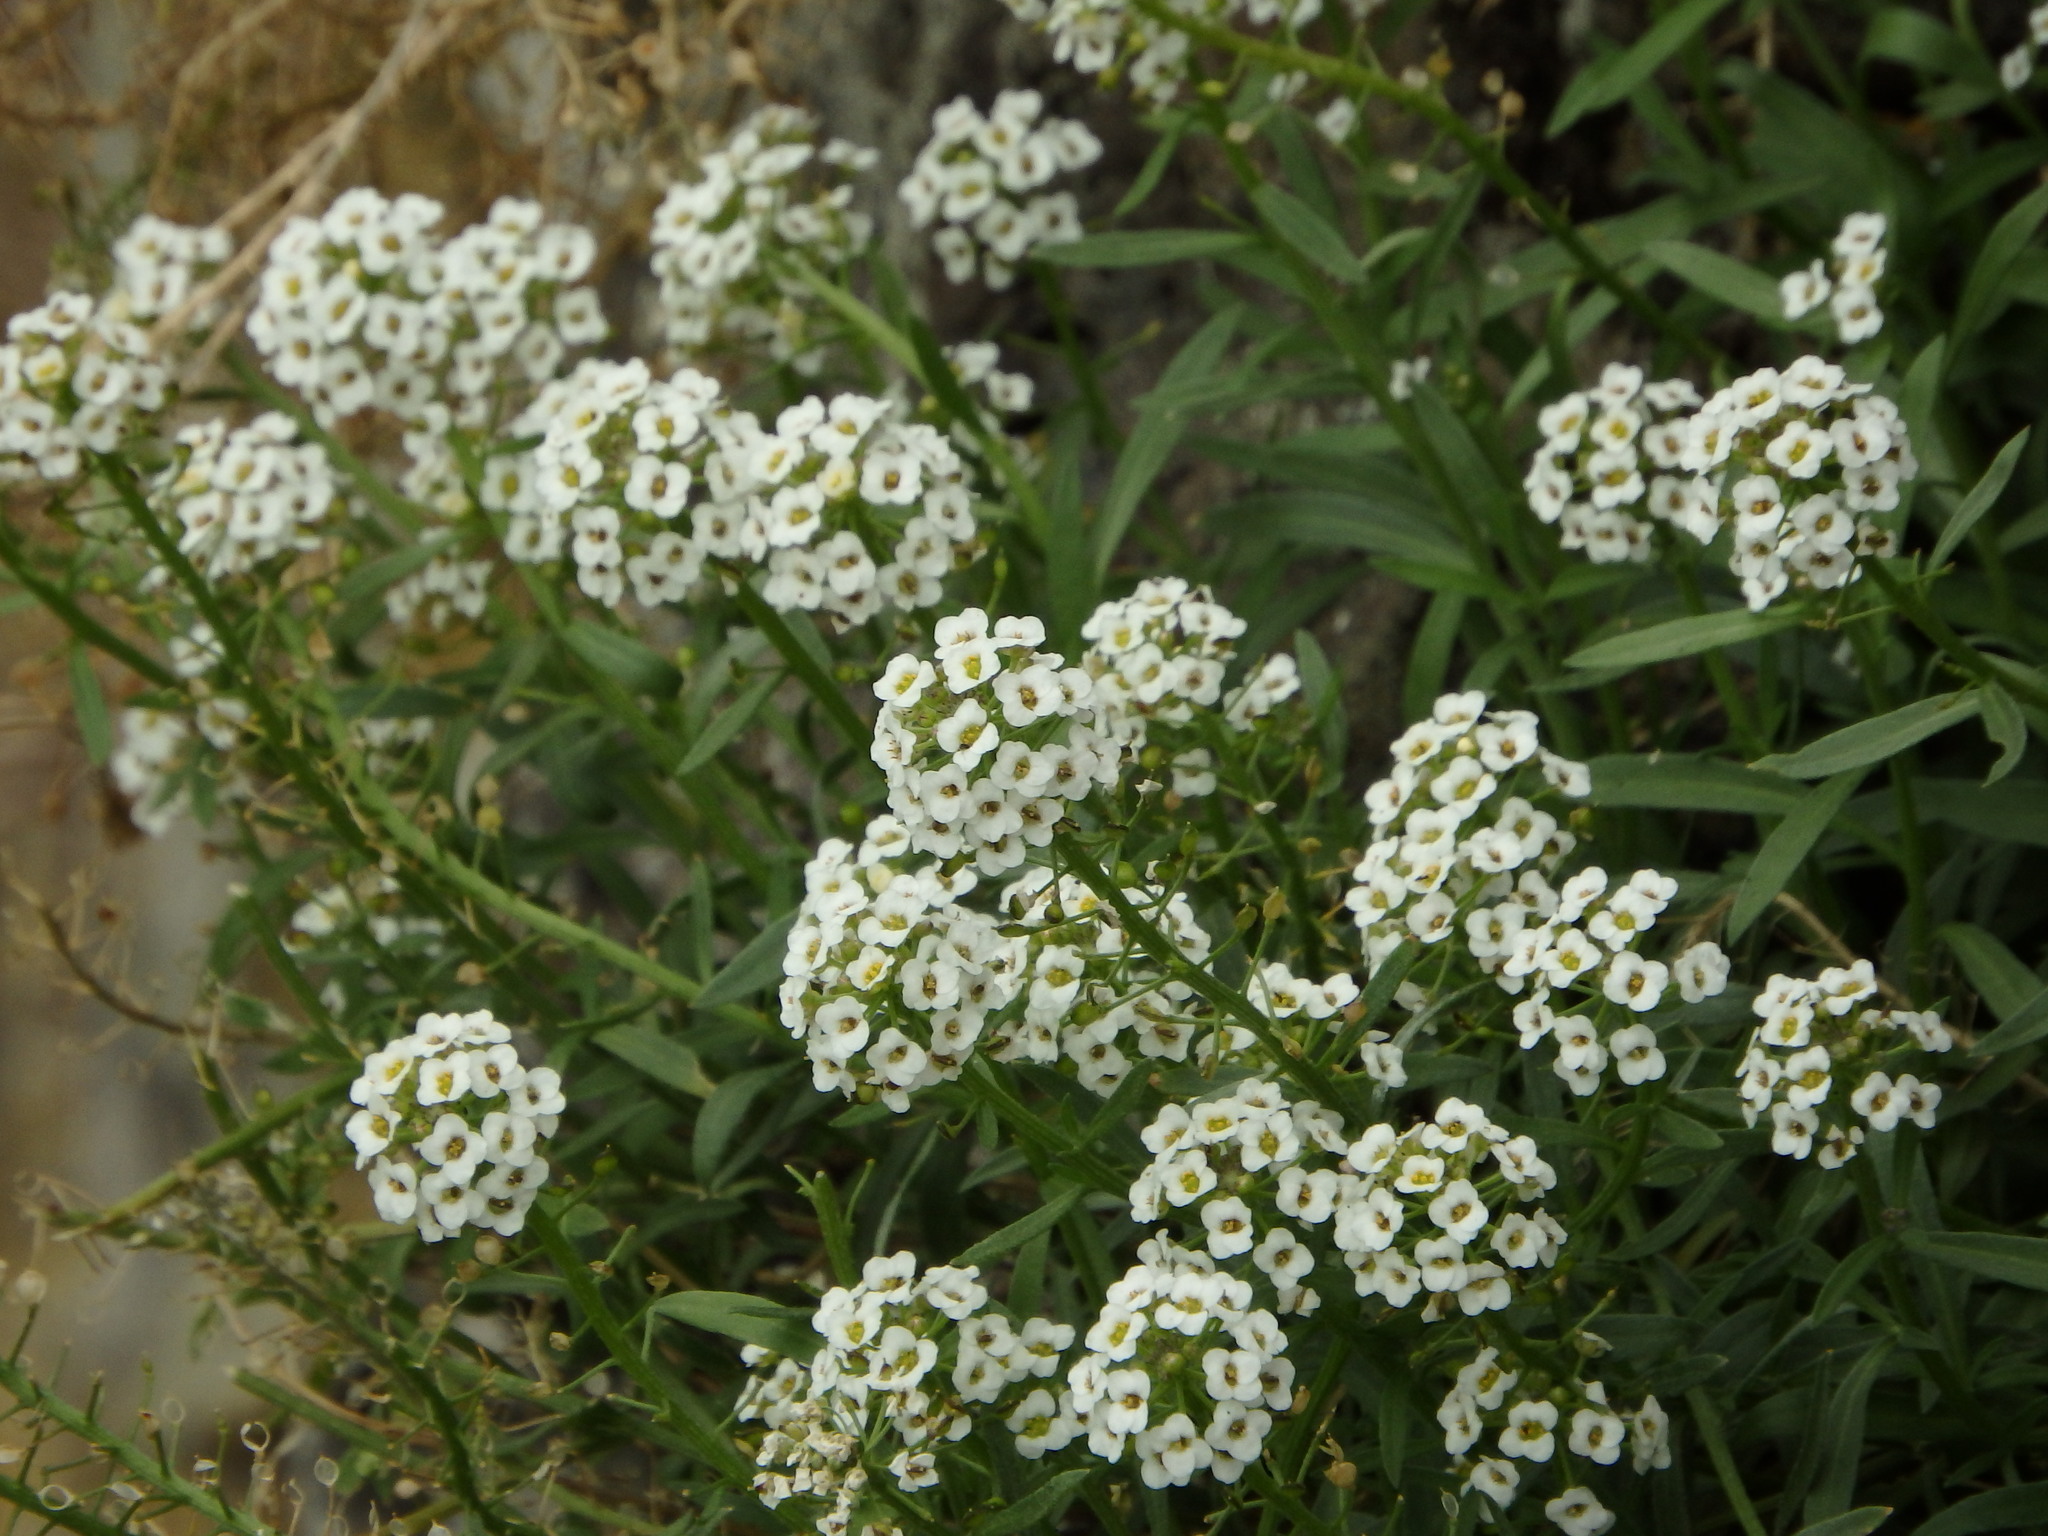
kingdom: Plantae
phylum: Tracheophyta
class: Magnoliopsida
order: Brassicales
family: Brassicaceae
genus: Lobularia
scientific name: Lobularia maritima
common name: Sweet alison
